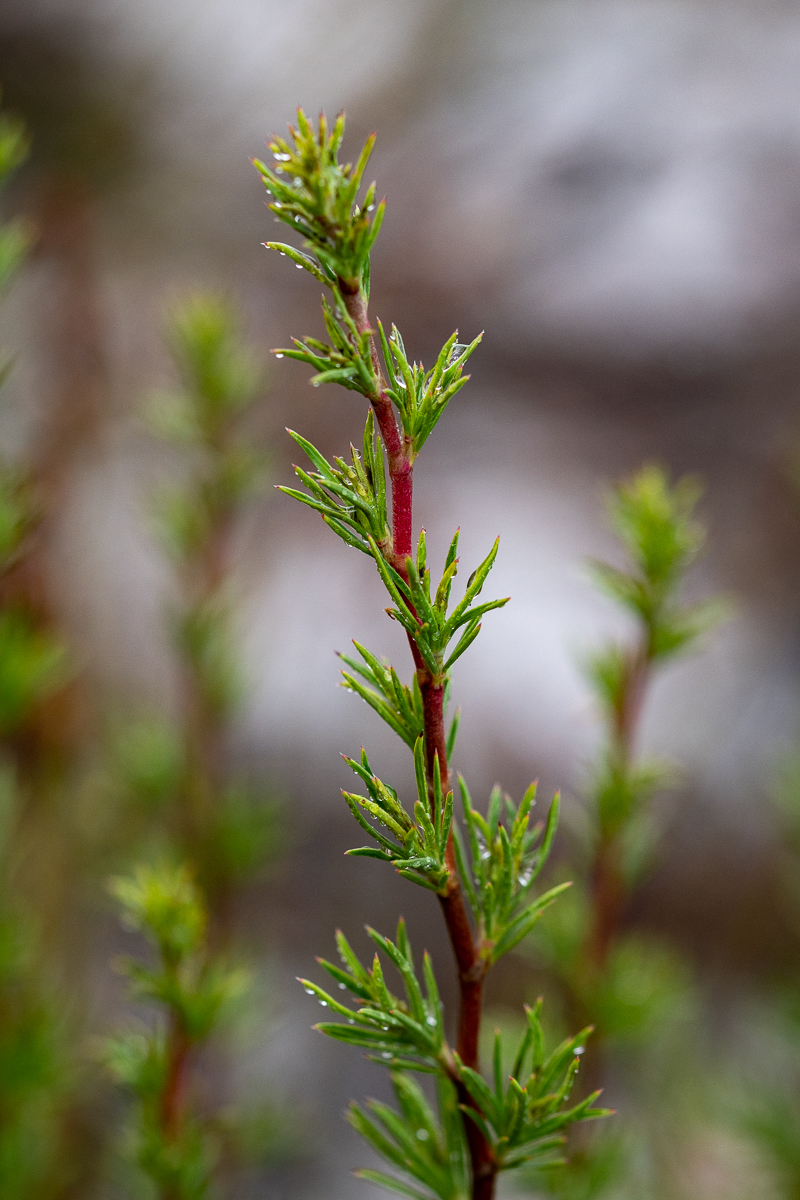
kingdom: Plantae
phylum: Tracheophyta
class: Magnoliopsida
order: Rosales
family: Rosaceae
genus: Cliffortia
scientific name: Cliffortia atrata
